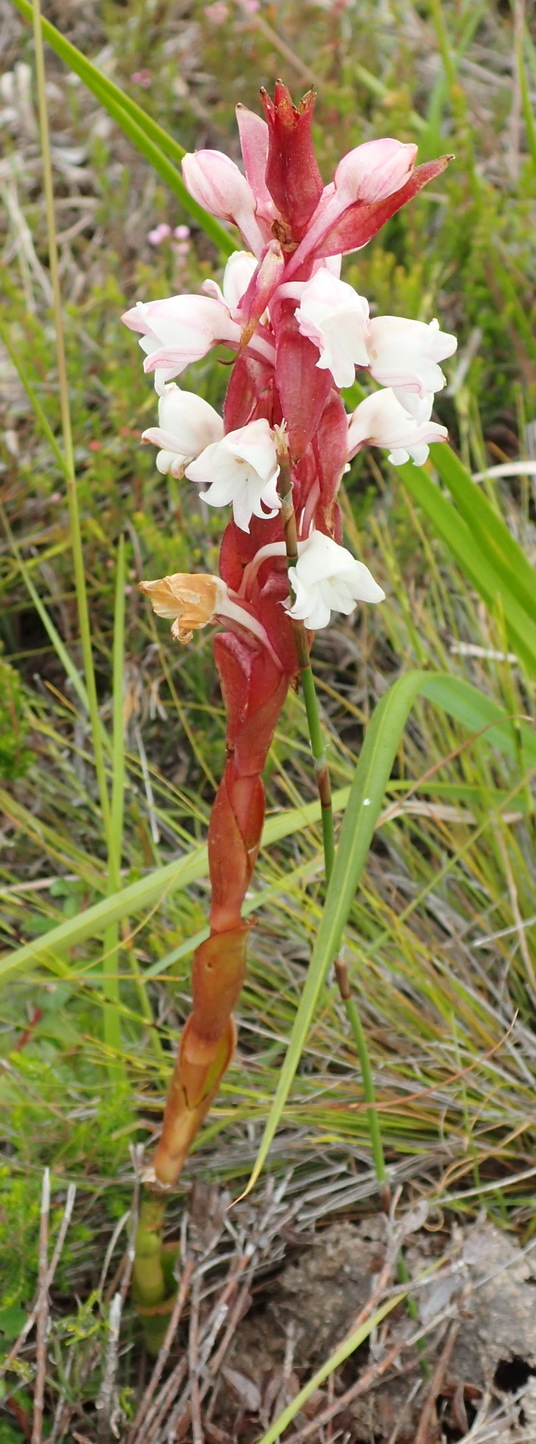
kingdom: Plantae
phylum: Tracheophyta
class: Liliopsida
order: Asparagales
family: Orchidaceae
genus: Satyrium
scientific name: Satyrium acuminatum
